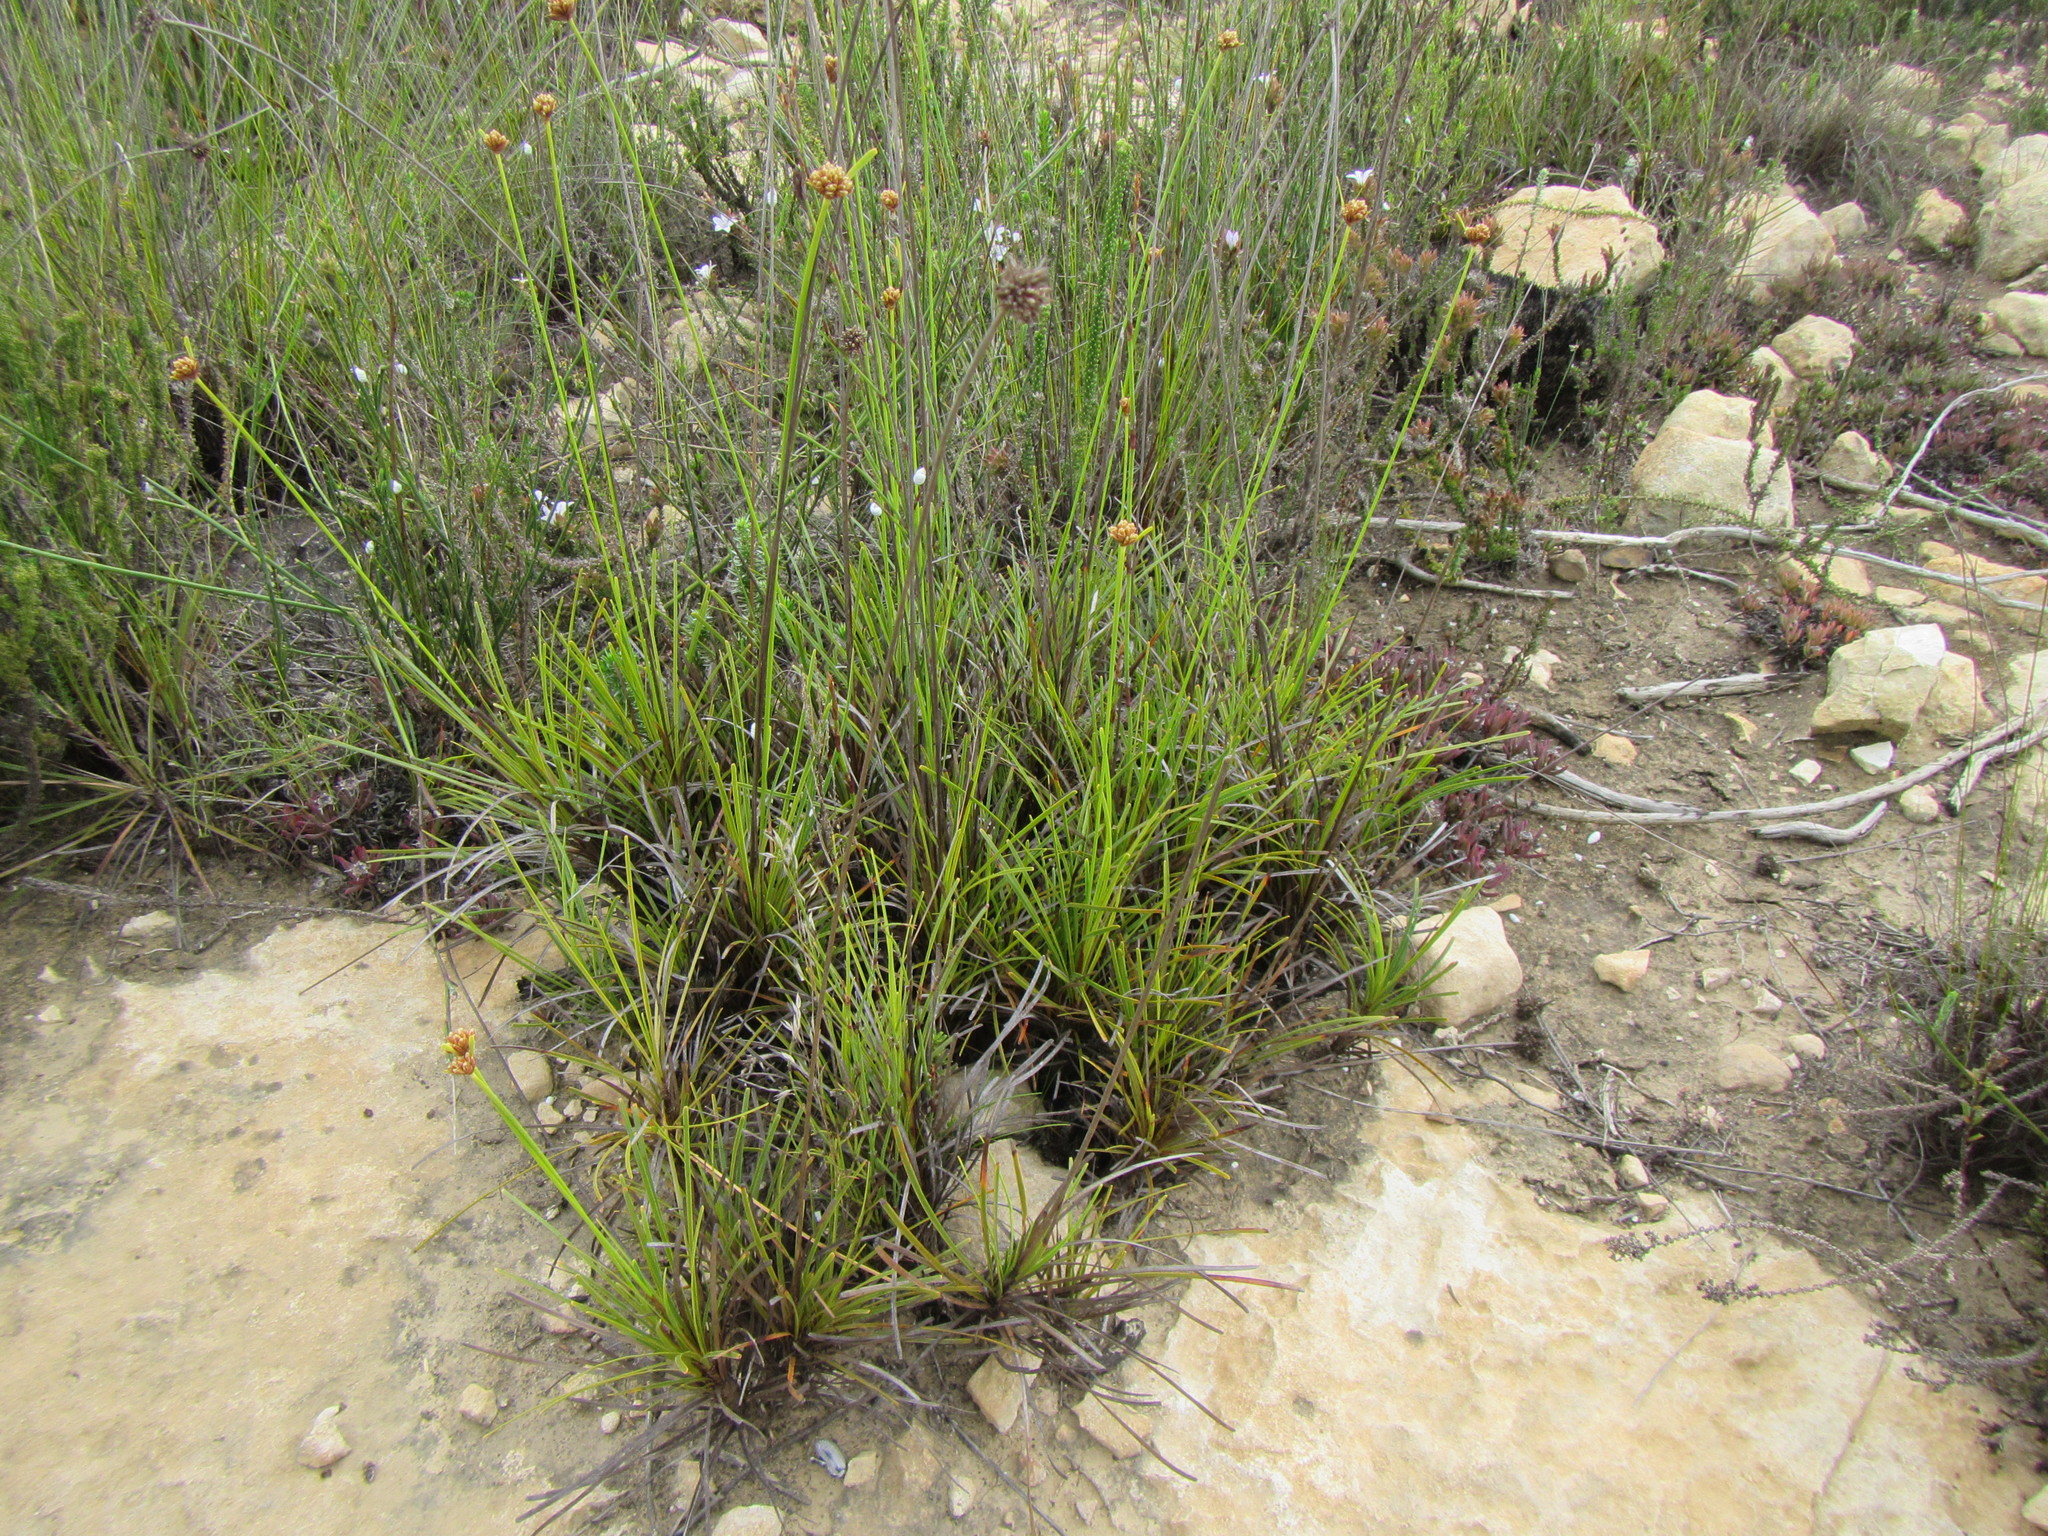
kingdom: Plantae
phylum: Tracheophyta
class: Liliopsida
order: Poales
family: Cyperaceae
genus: Ficinia
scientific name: Ficinia praemorsa
